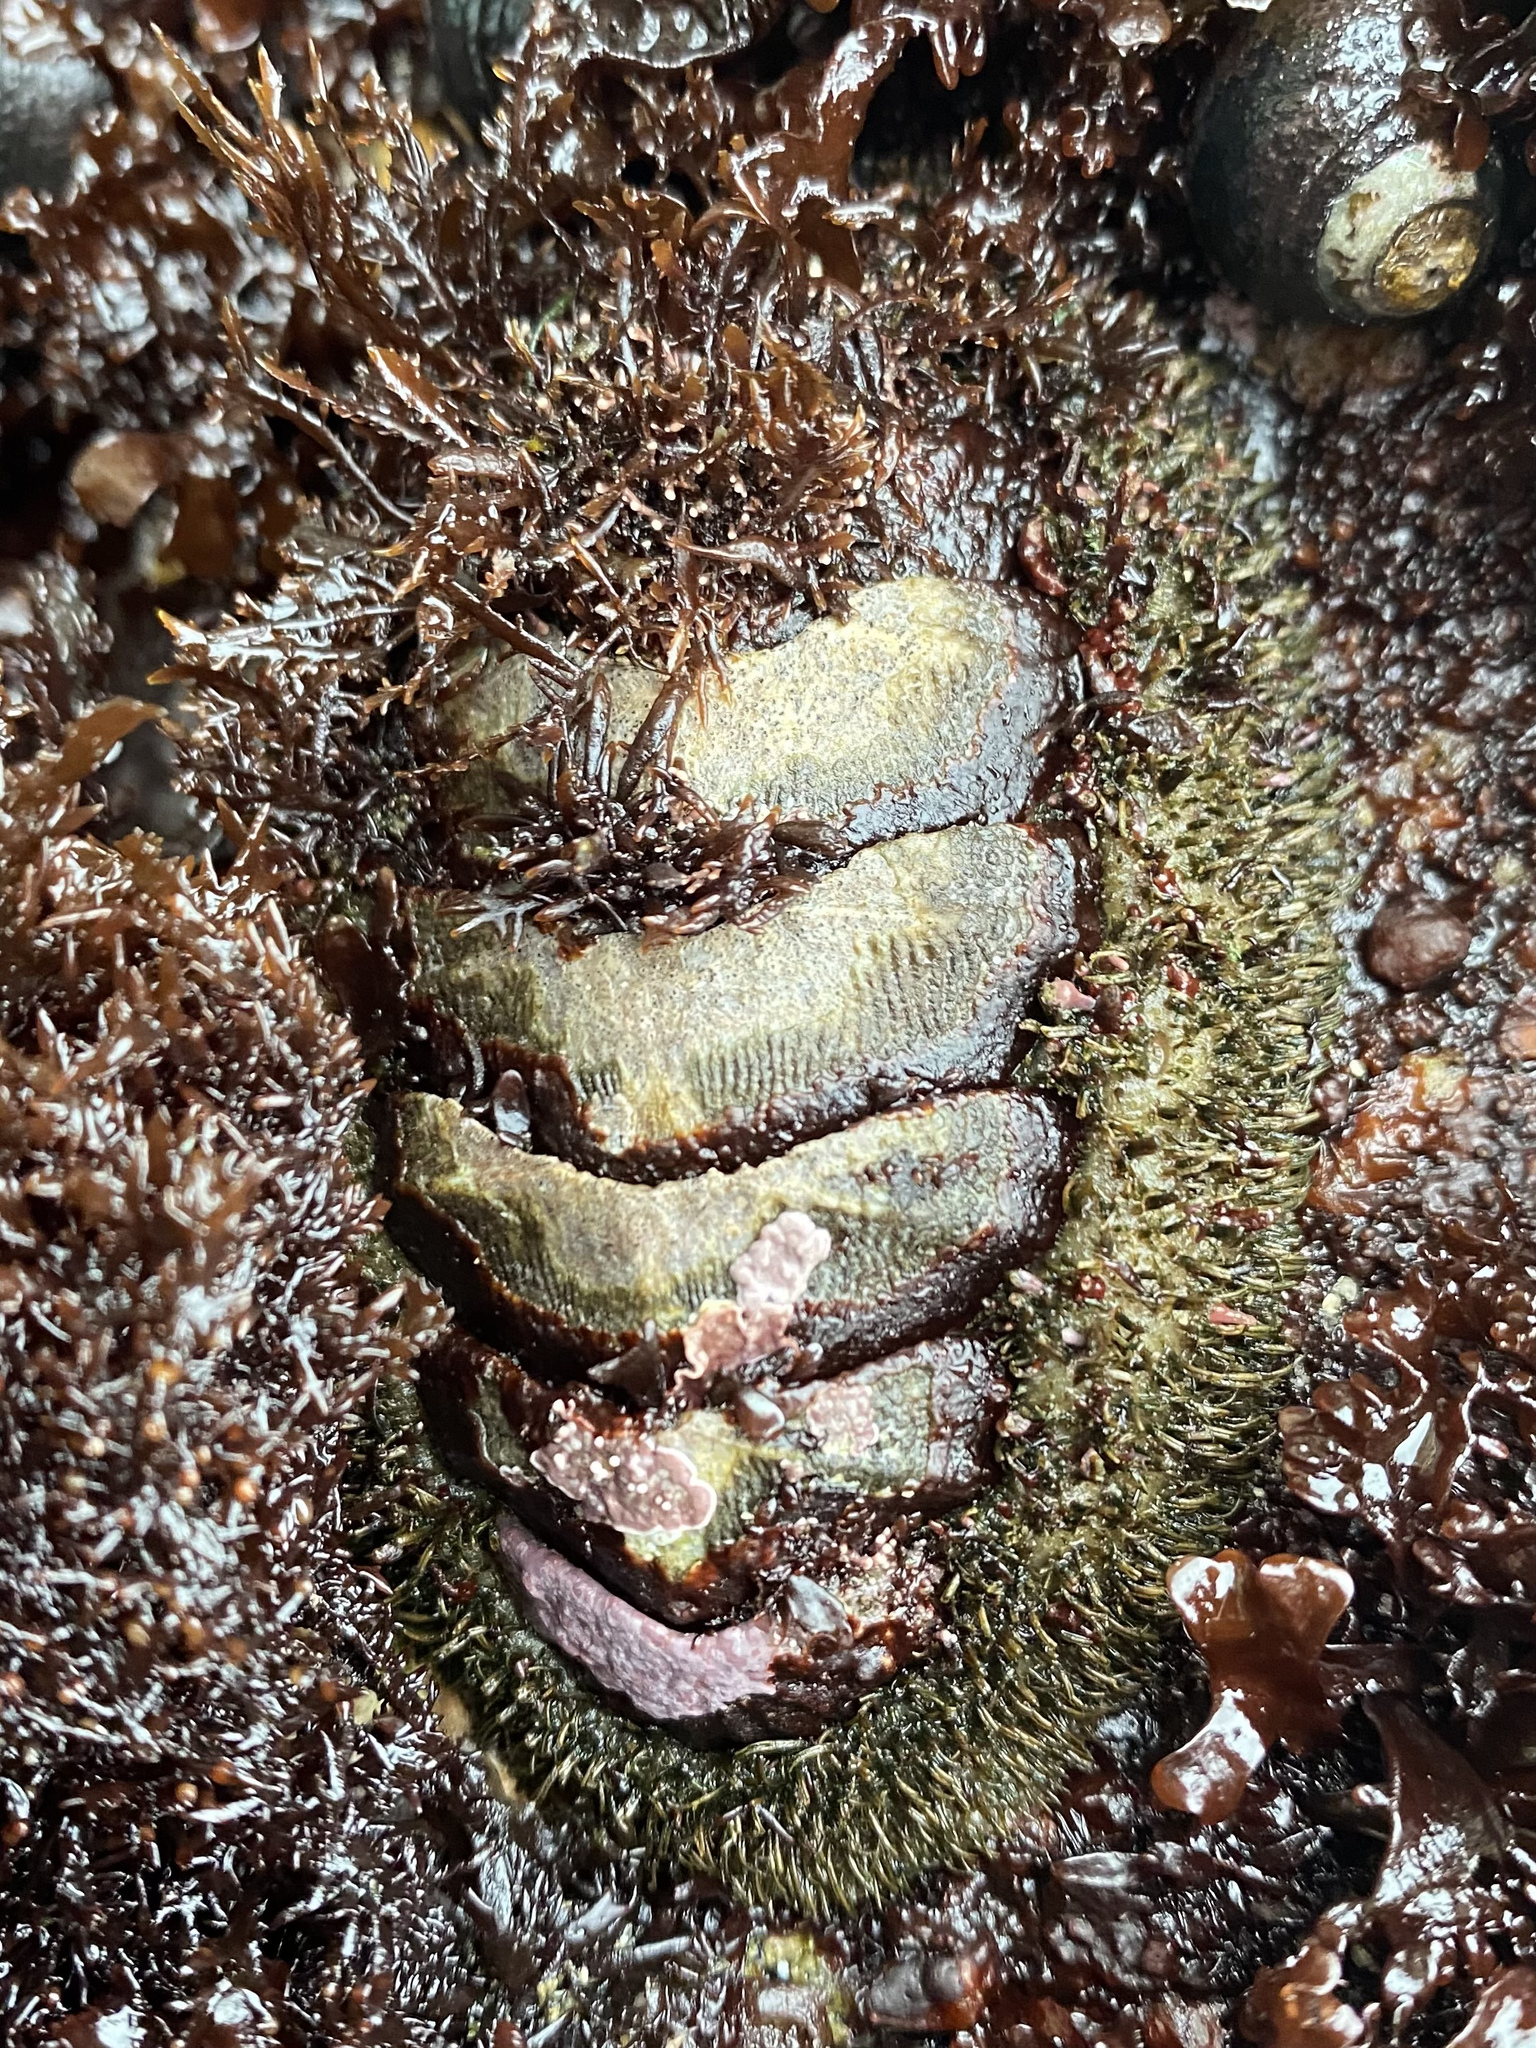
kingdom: Animalia
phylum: Mollusca
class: Polyplacophora
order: Chitonida
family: Mopaliidae
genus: Mopalia
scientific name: Mopalia muscosa
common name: Mossy chiton
